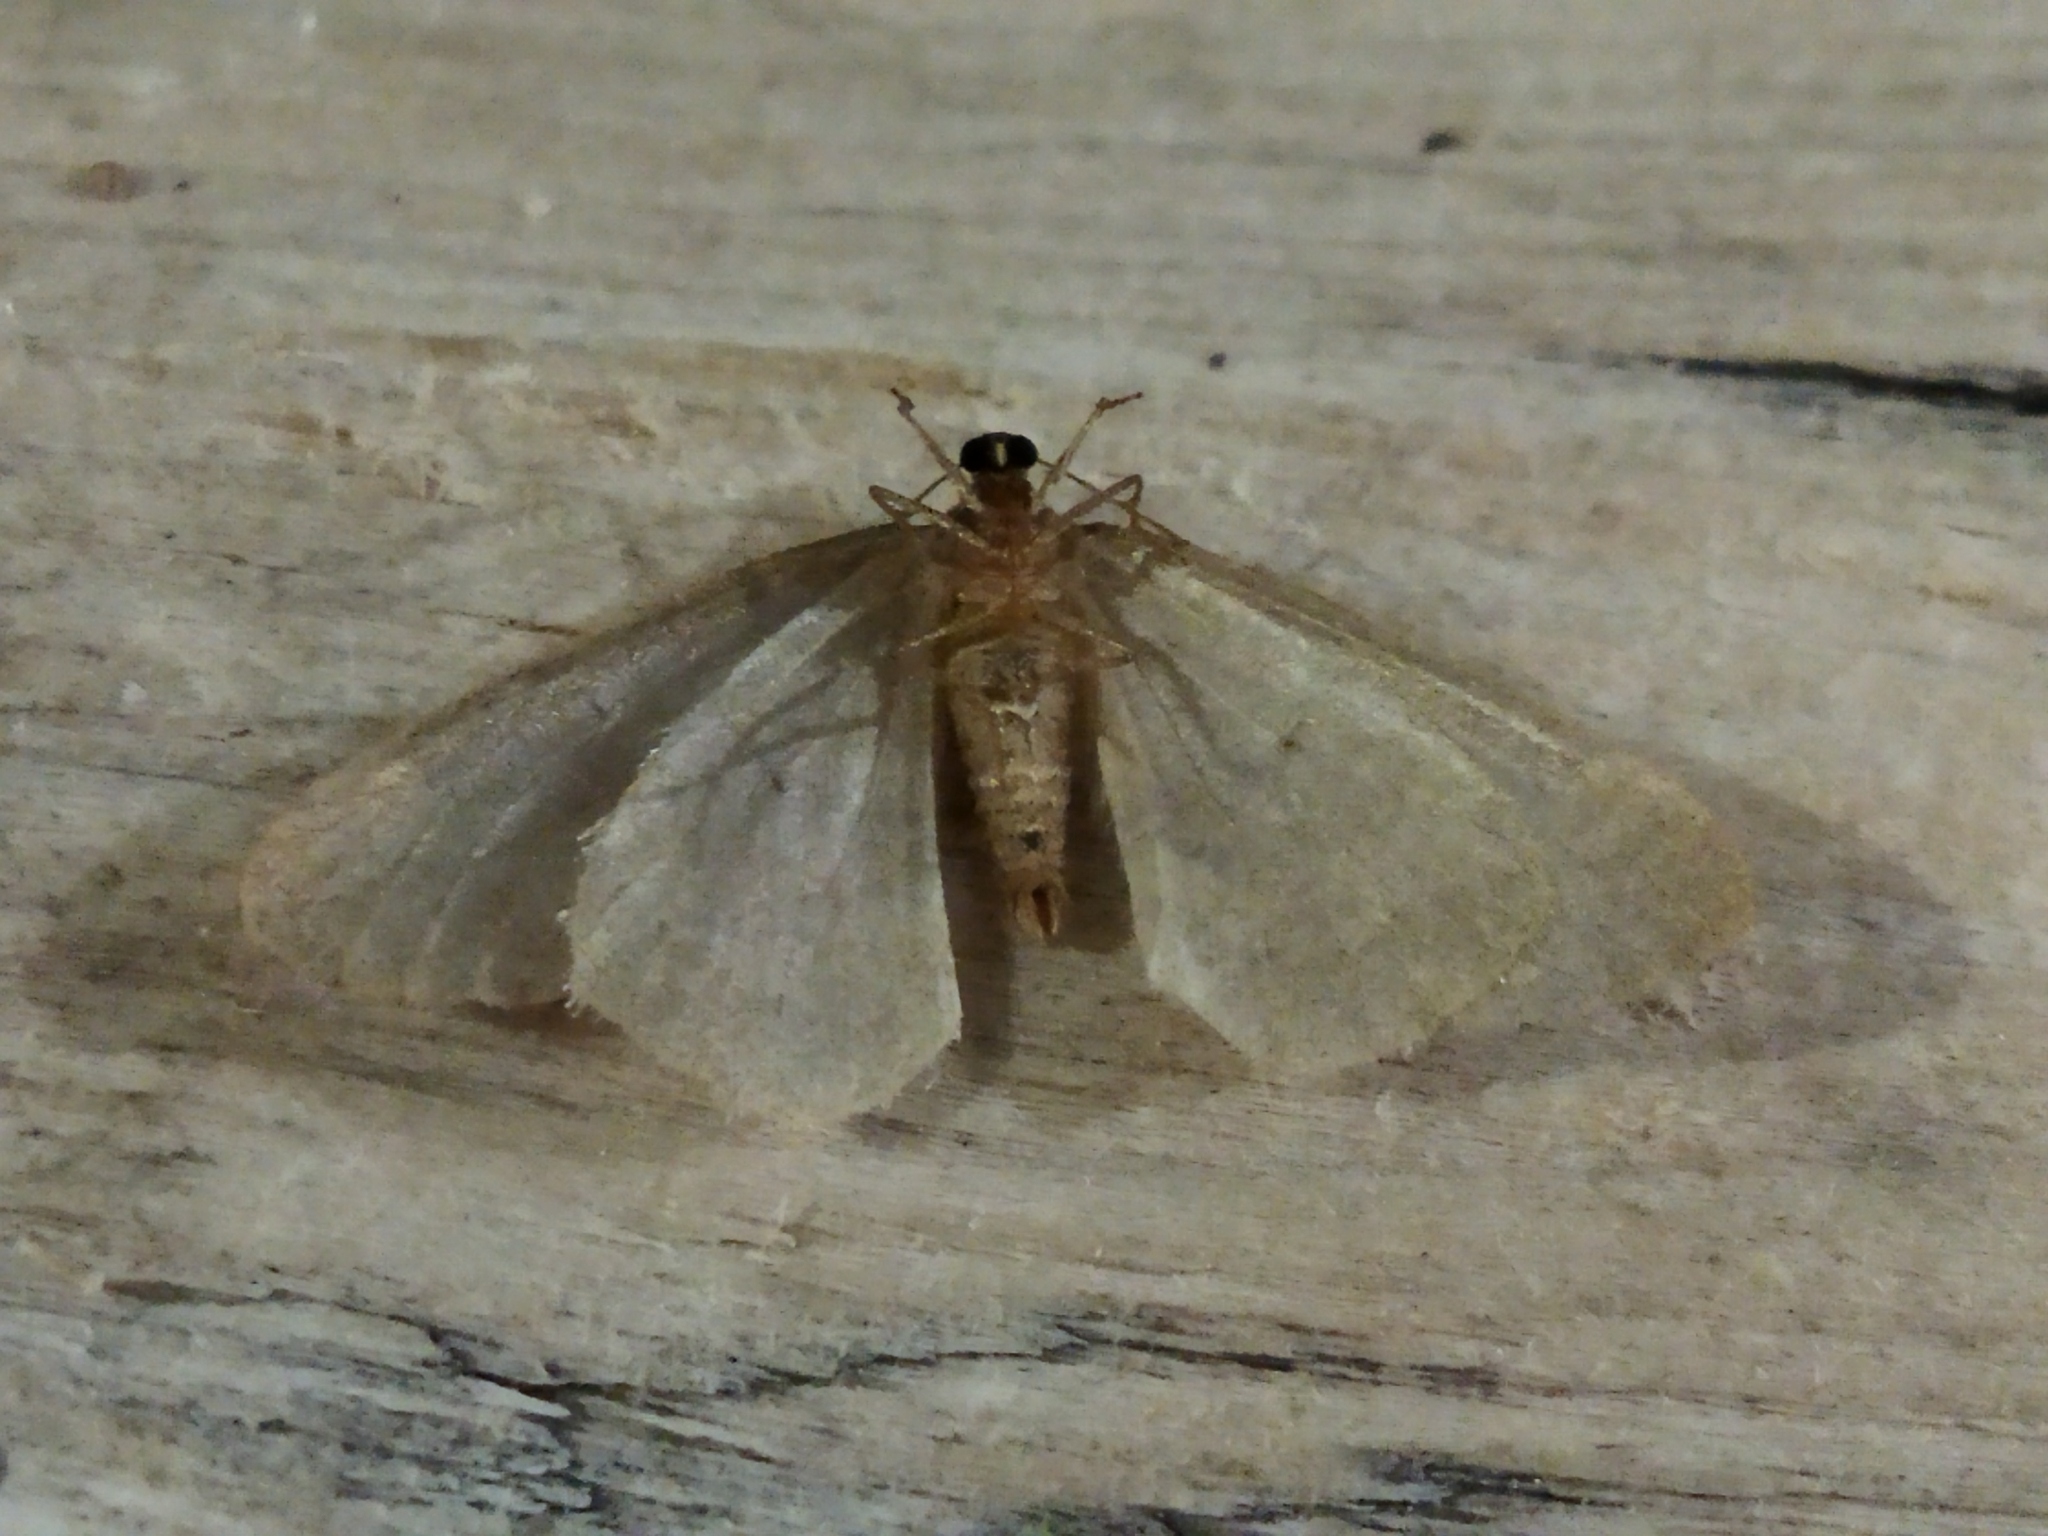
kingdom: Animalia
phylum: Arthropoda
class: Insecta
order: Lepidoptera
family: Geometridae
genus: Operophtera
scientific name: Operophtera brumata
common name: Winter moth
